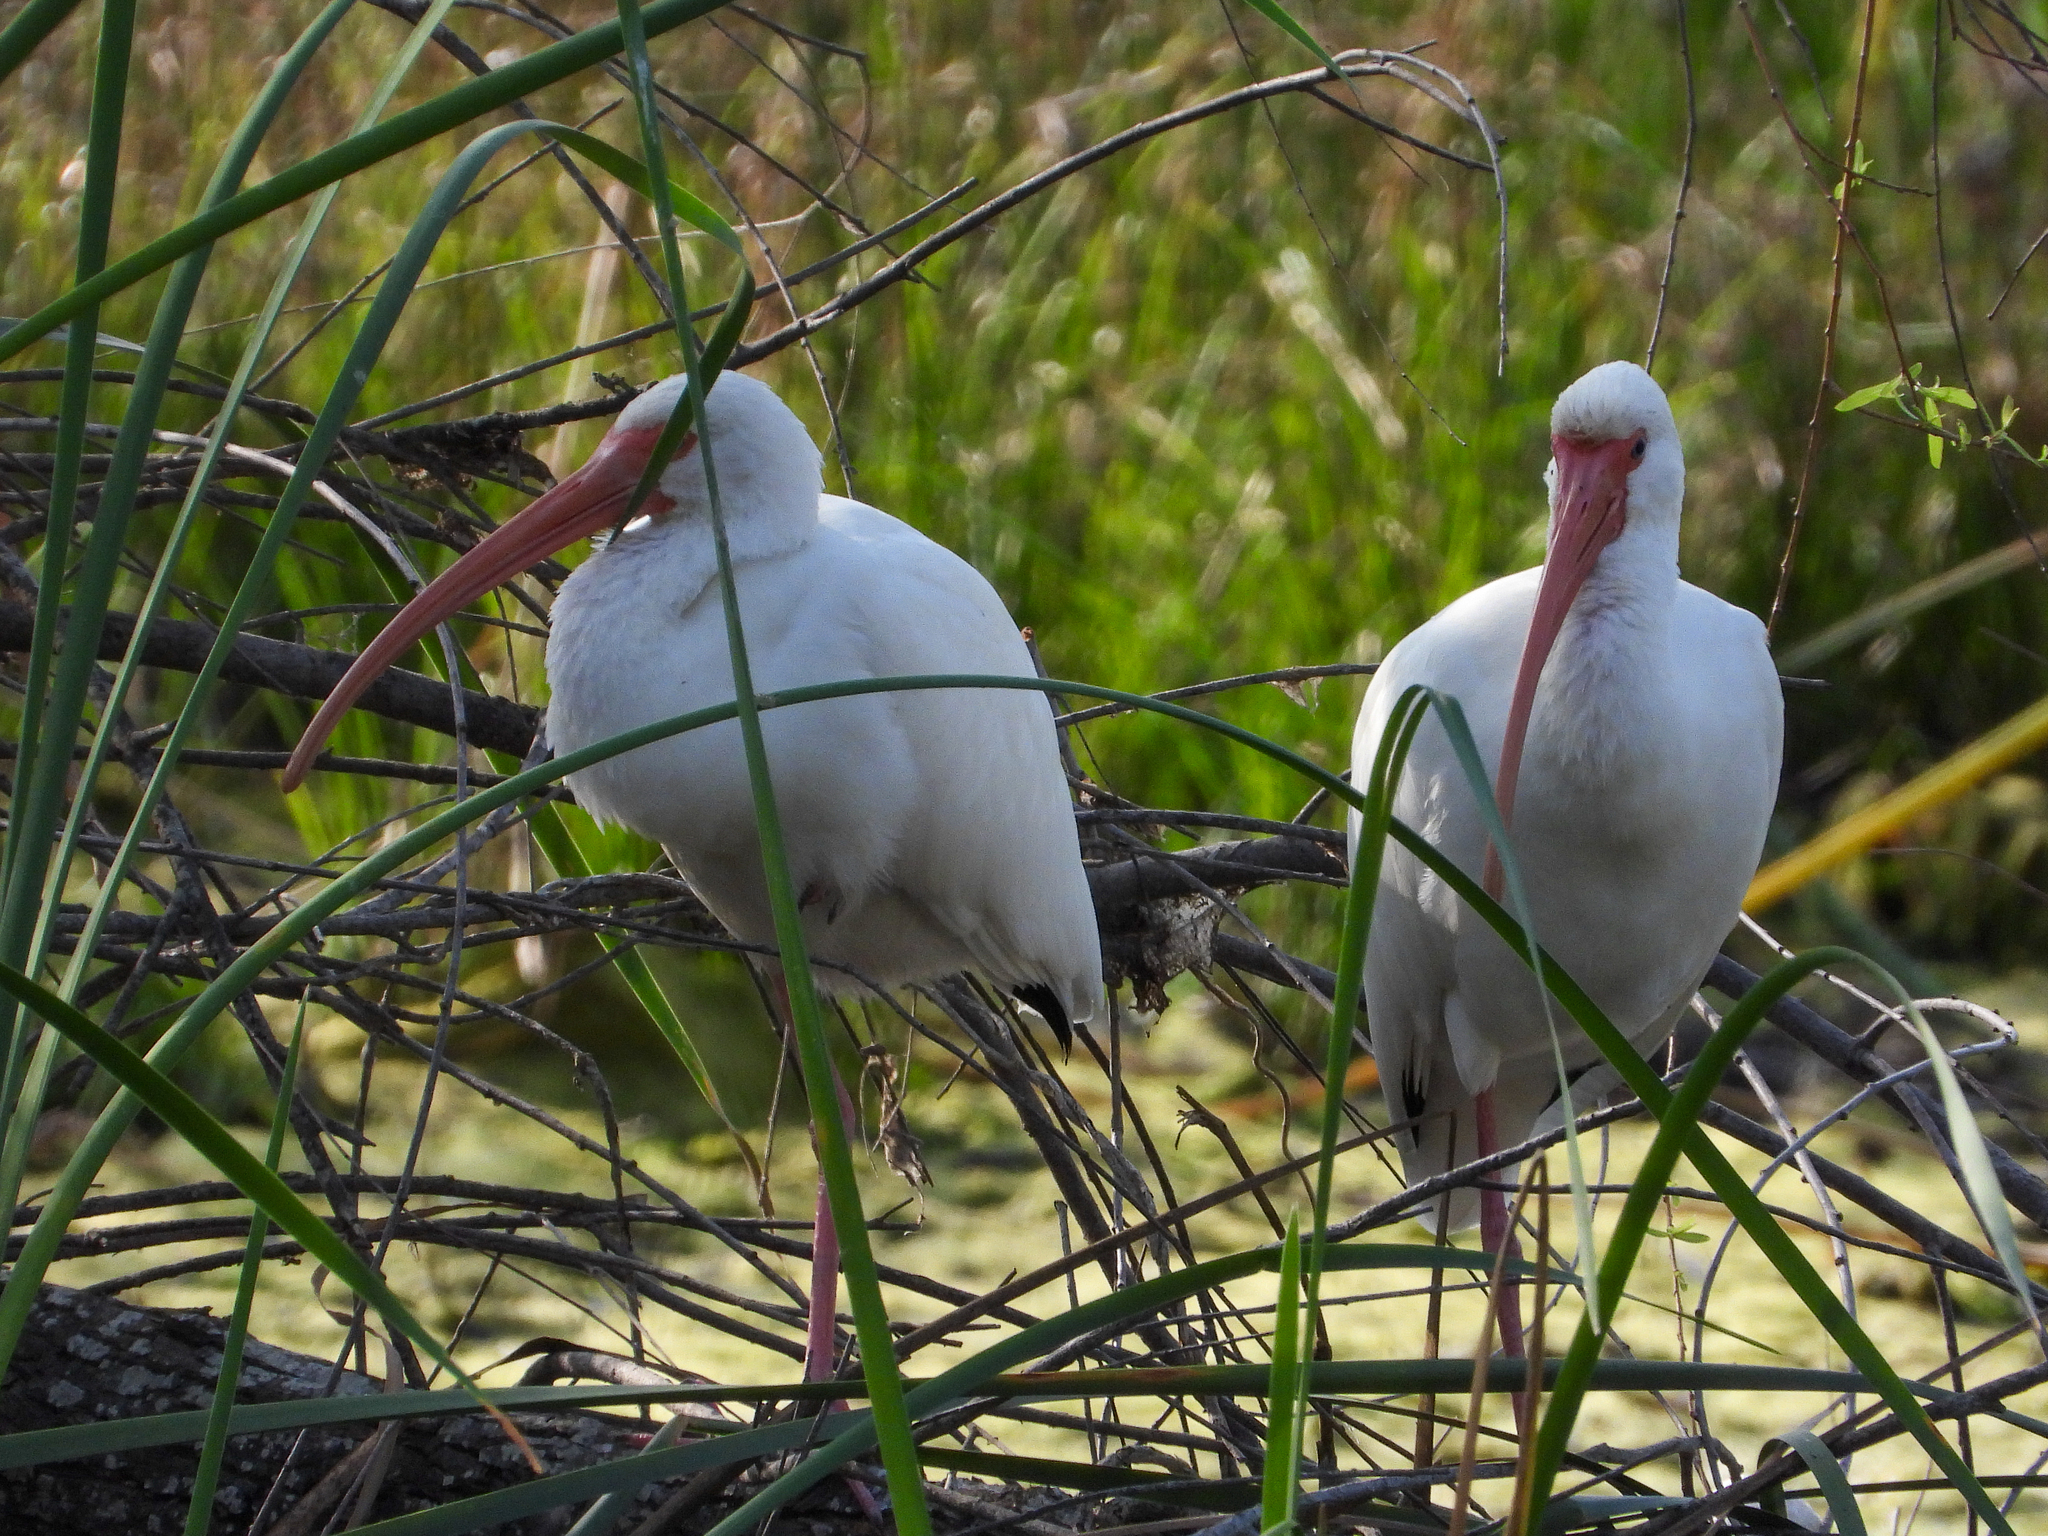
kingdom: Animalia
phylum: Chordata
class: Aves
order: Pelecaniformes
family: Threskiornithidae
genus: Eudocimus
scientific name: Eudocimus albus
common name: White ibis
